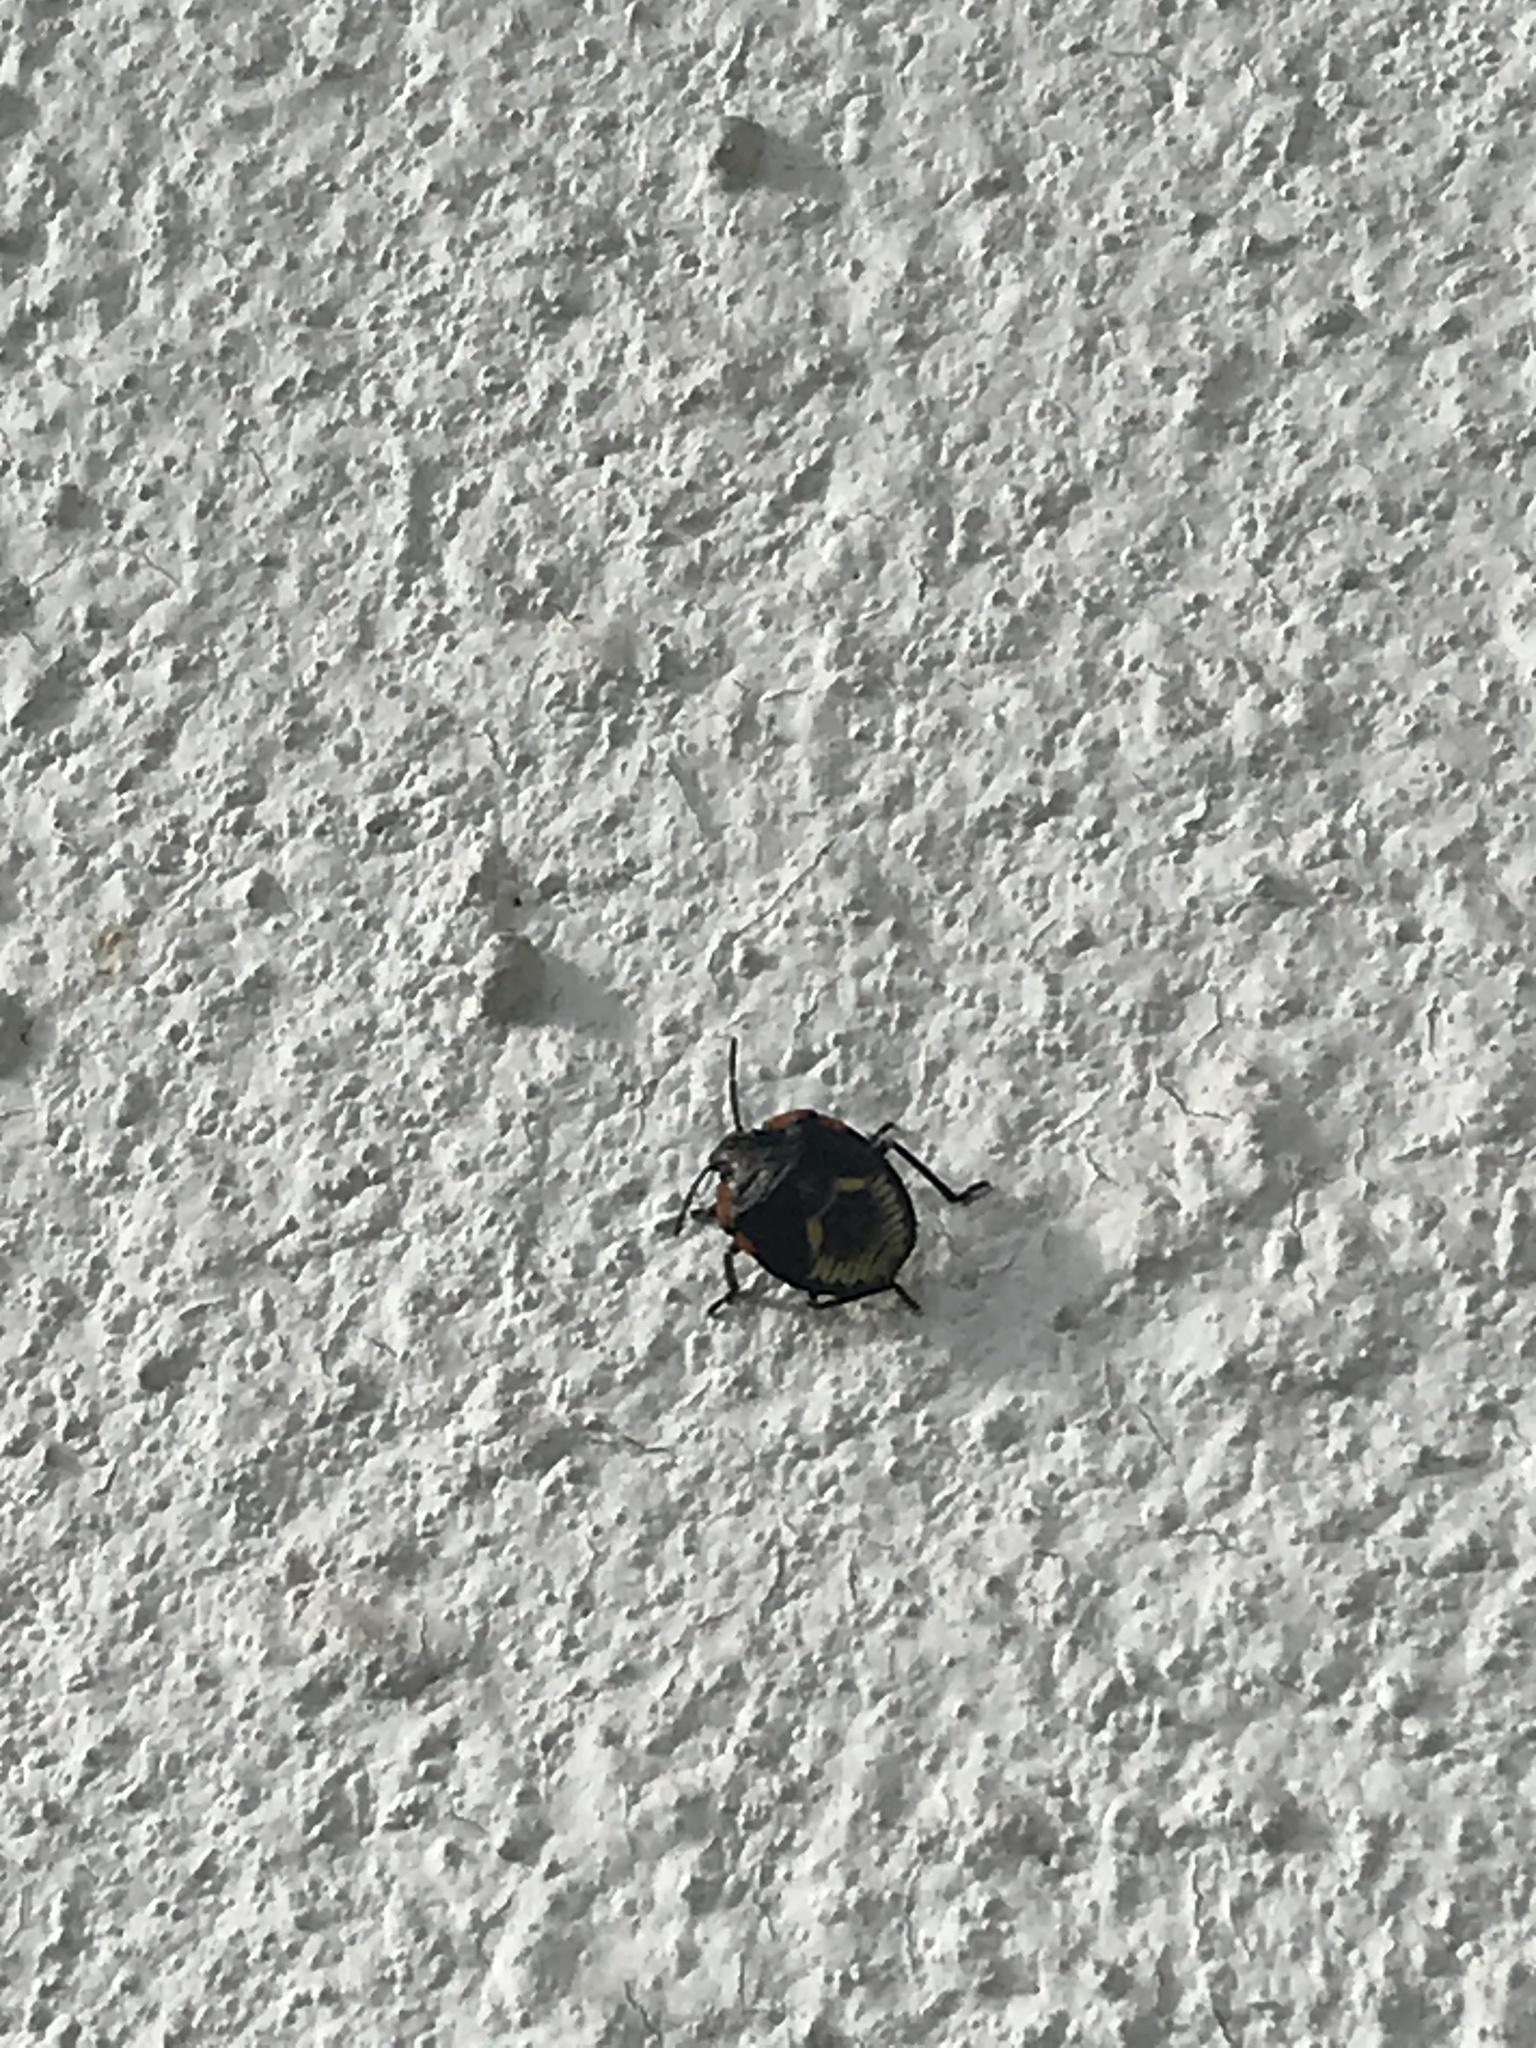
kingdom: Animalia
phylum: Arthropoda
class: Insecta
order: Hemiptera
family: Pentatomidae
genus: Chinavia
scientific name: Chinavia hilaris
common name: Green stink bug
